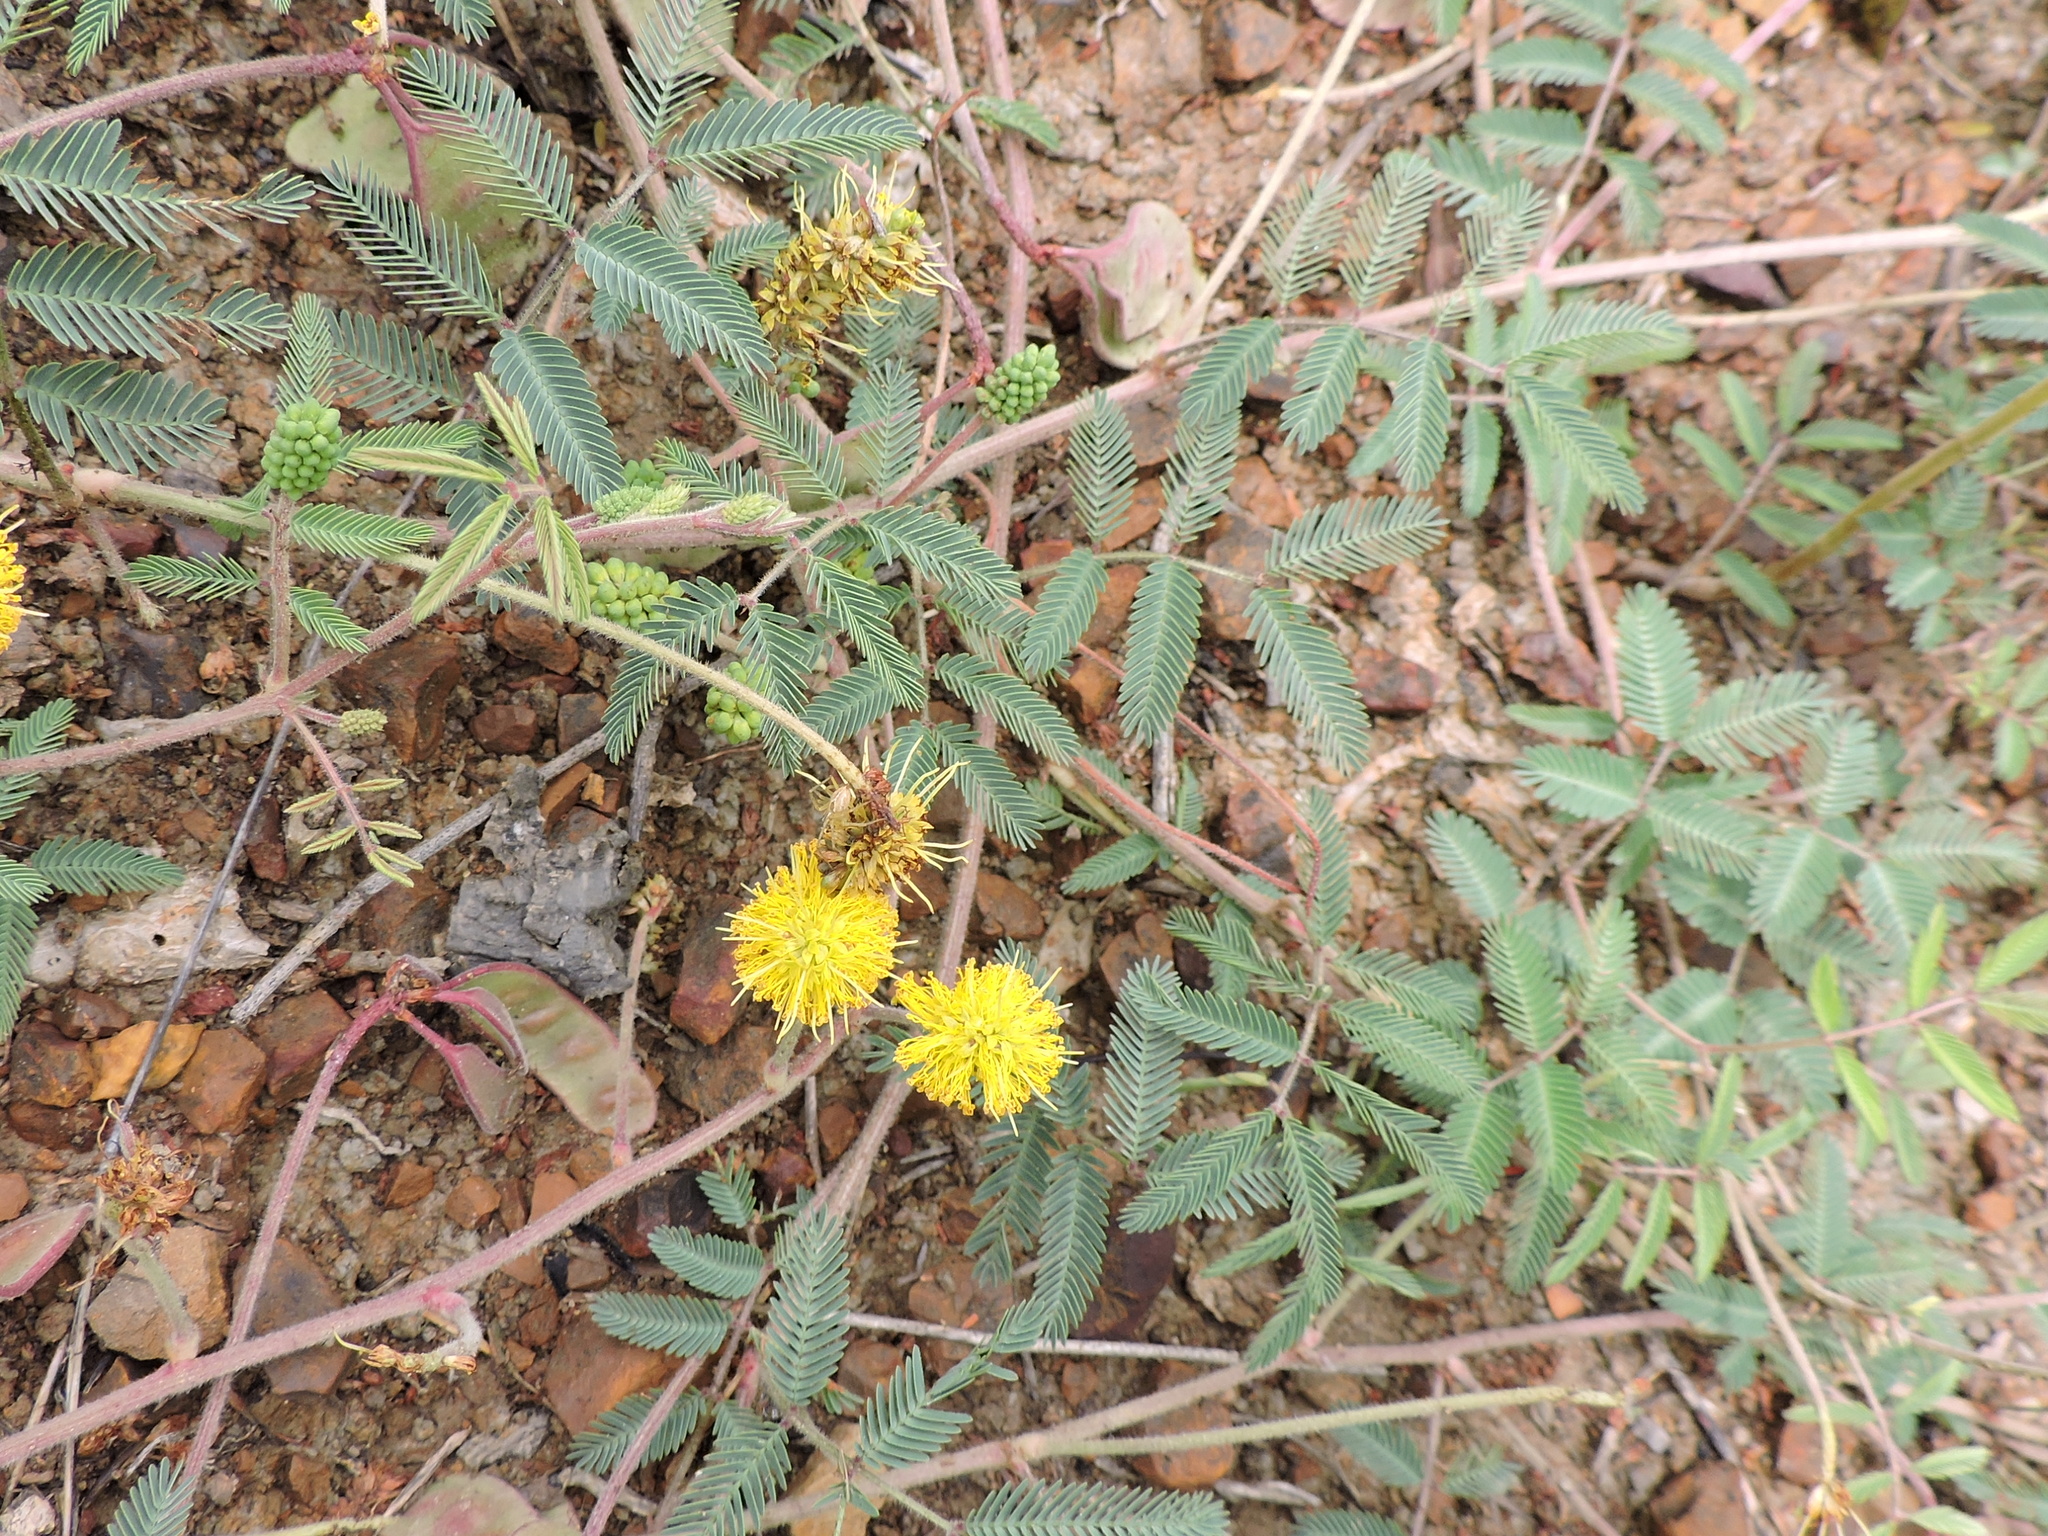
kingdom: Plantae
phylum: Tracheophyta
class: Magnoliopsida
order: Fabales
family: Fabaceae
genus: Neptunia
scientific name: Neptunia lutea
